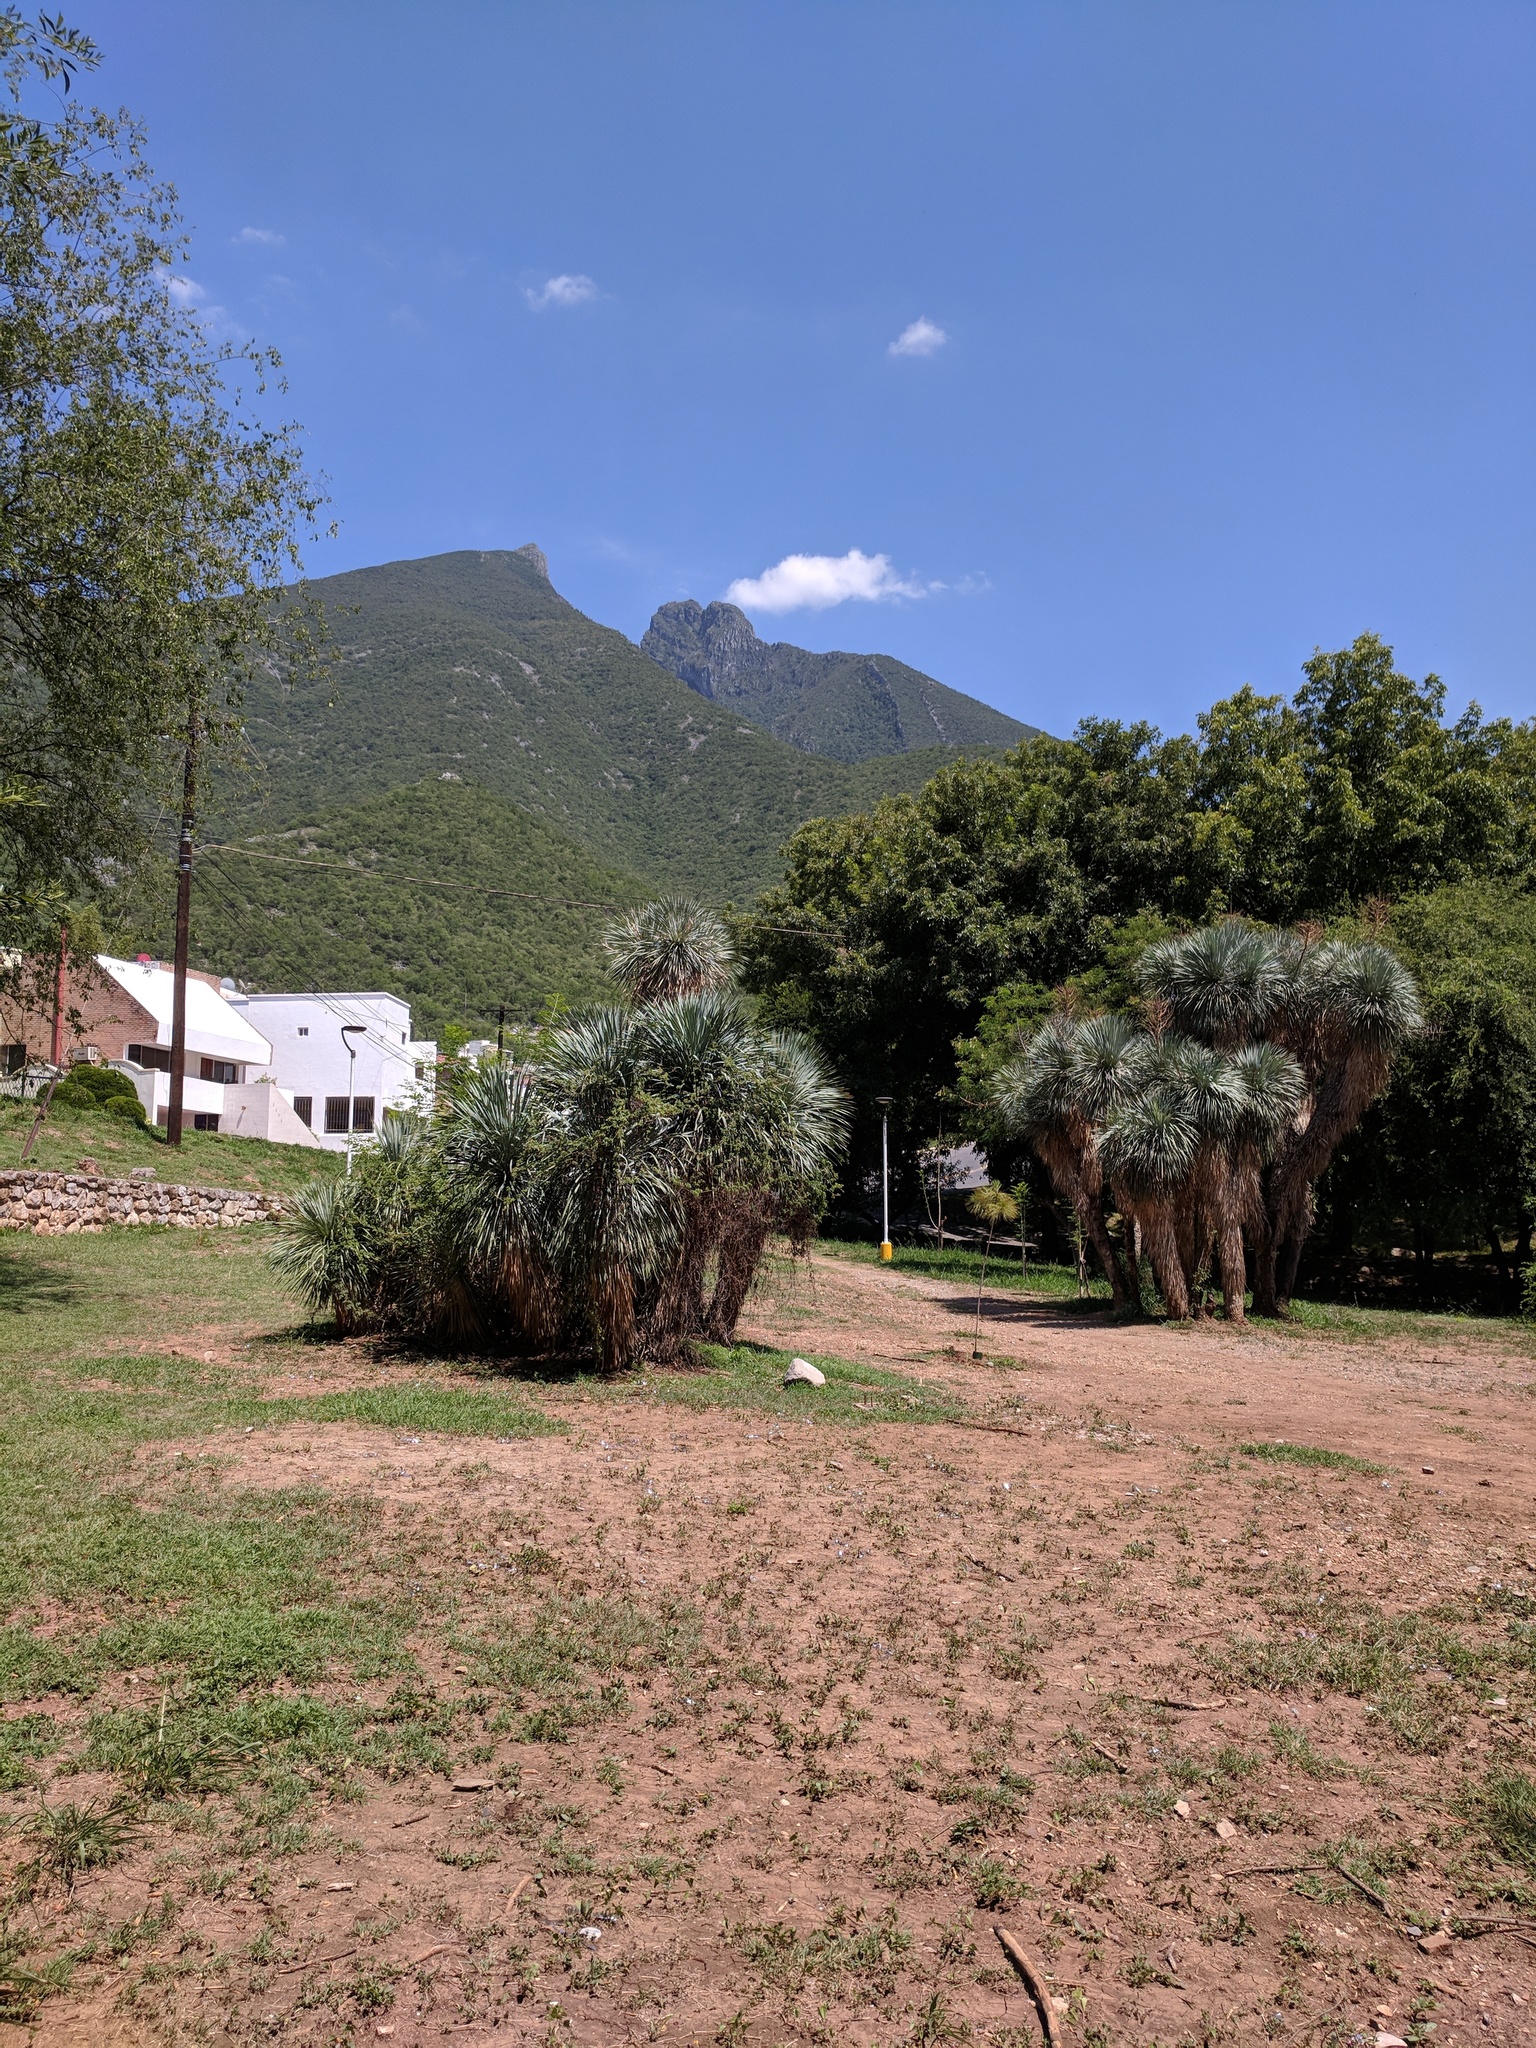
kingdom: Plantae
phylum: Tracheophyta
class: Liliopsida
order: Asparagales
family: Asparagaceae
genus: Yucca
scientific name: Yucca filifera
